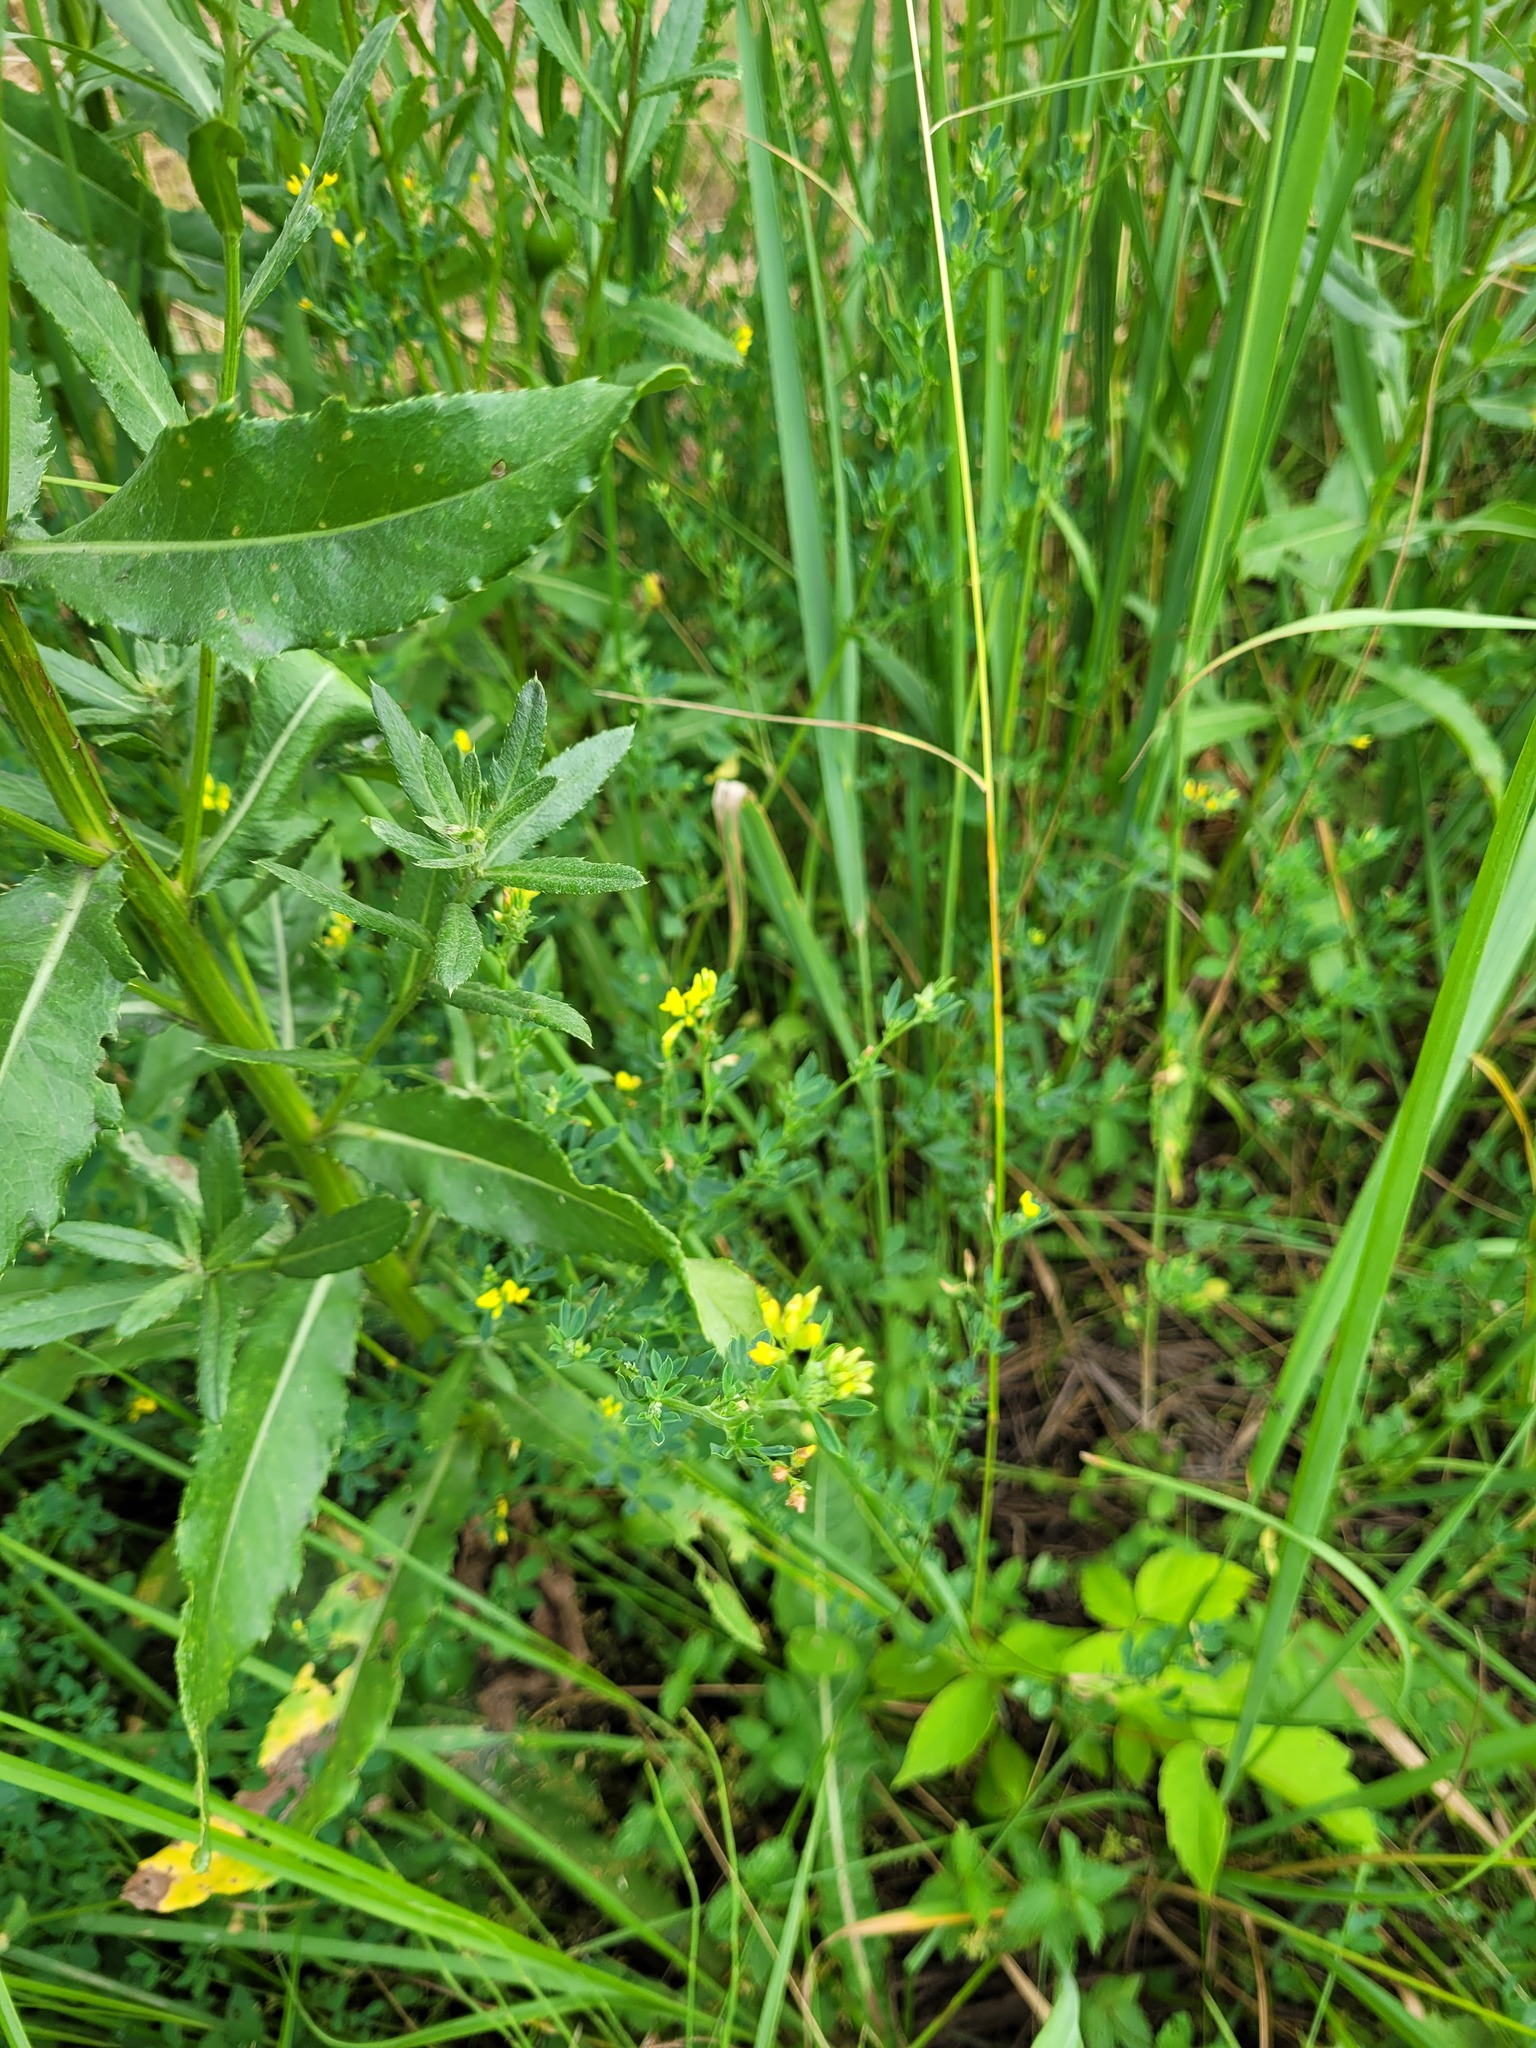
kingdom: Plantae
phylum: Tracheophyta
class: Magnoliopsida
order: Fabales
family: Fabaceae
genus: Medicago
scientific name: Medicago falcata
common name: Sickle medick
